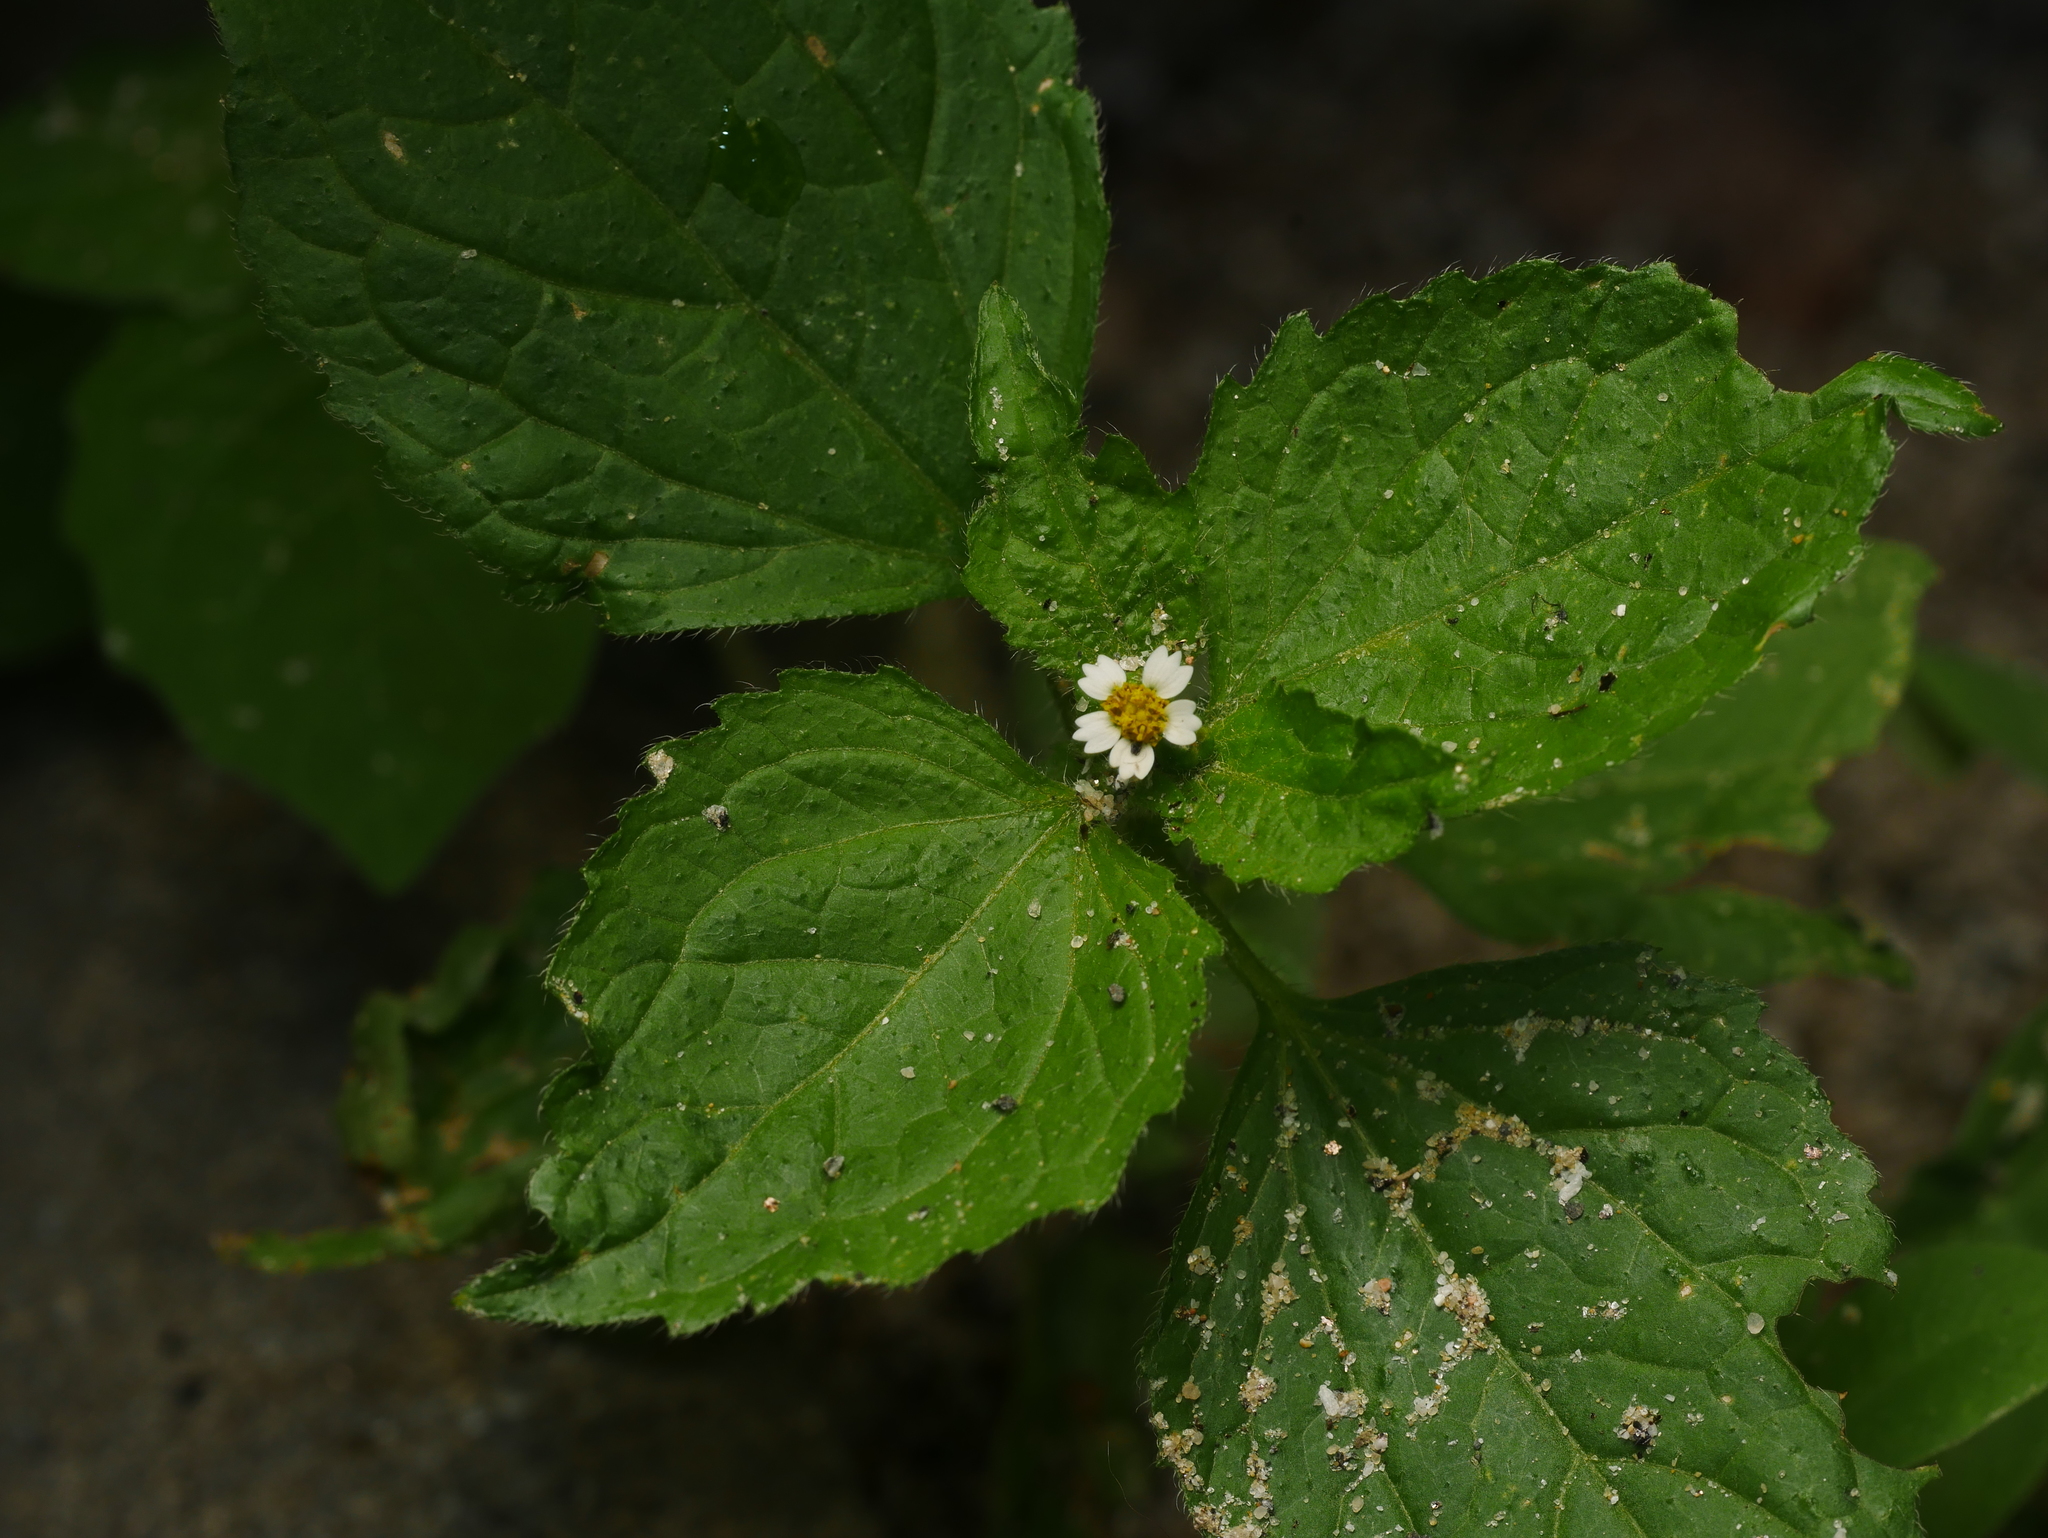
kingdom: Plantae
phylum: Tracheophyta
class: Magnoliopsida
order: Asterales
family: Asteraceae
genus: Galinsoga
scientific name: Galinsoga quadriradiata
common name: Shaggy soldier
